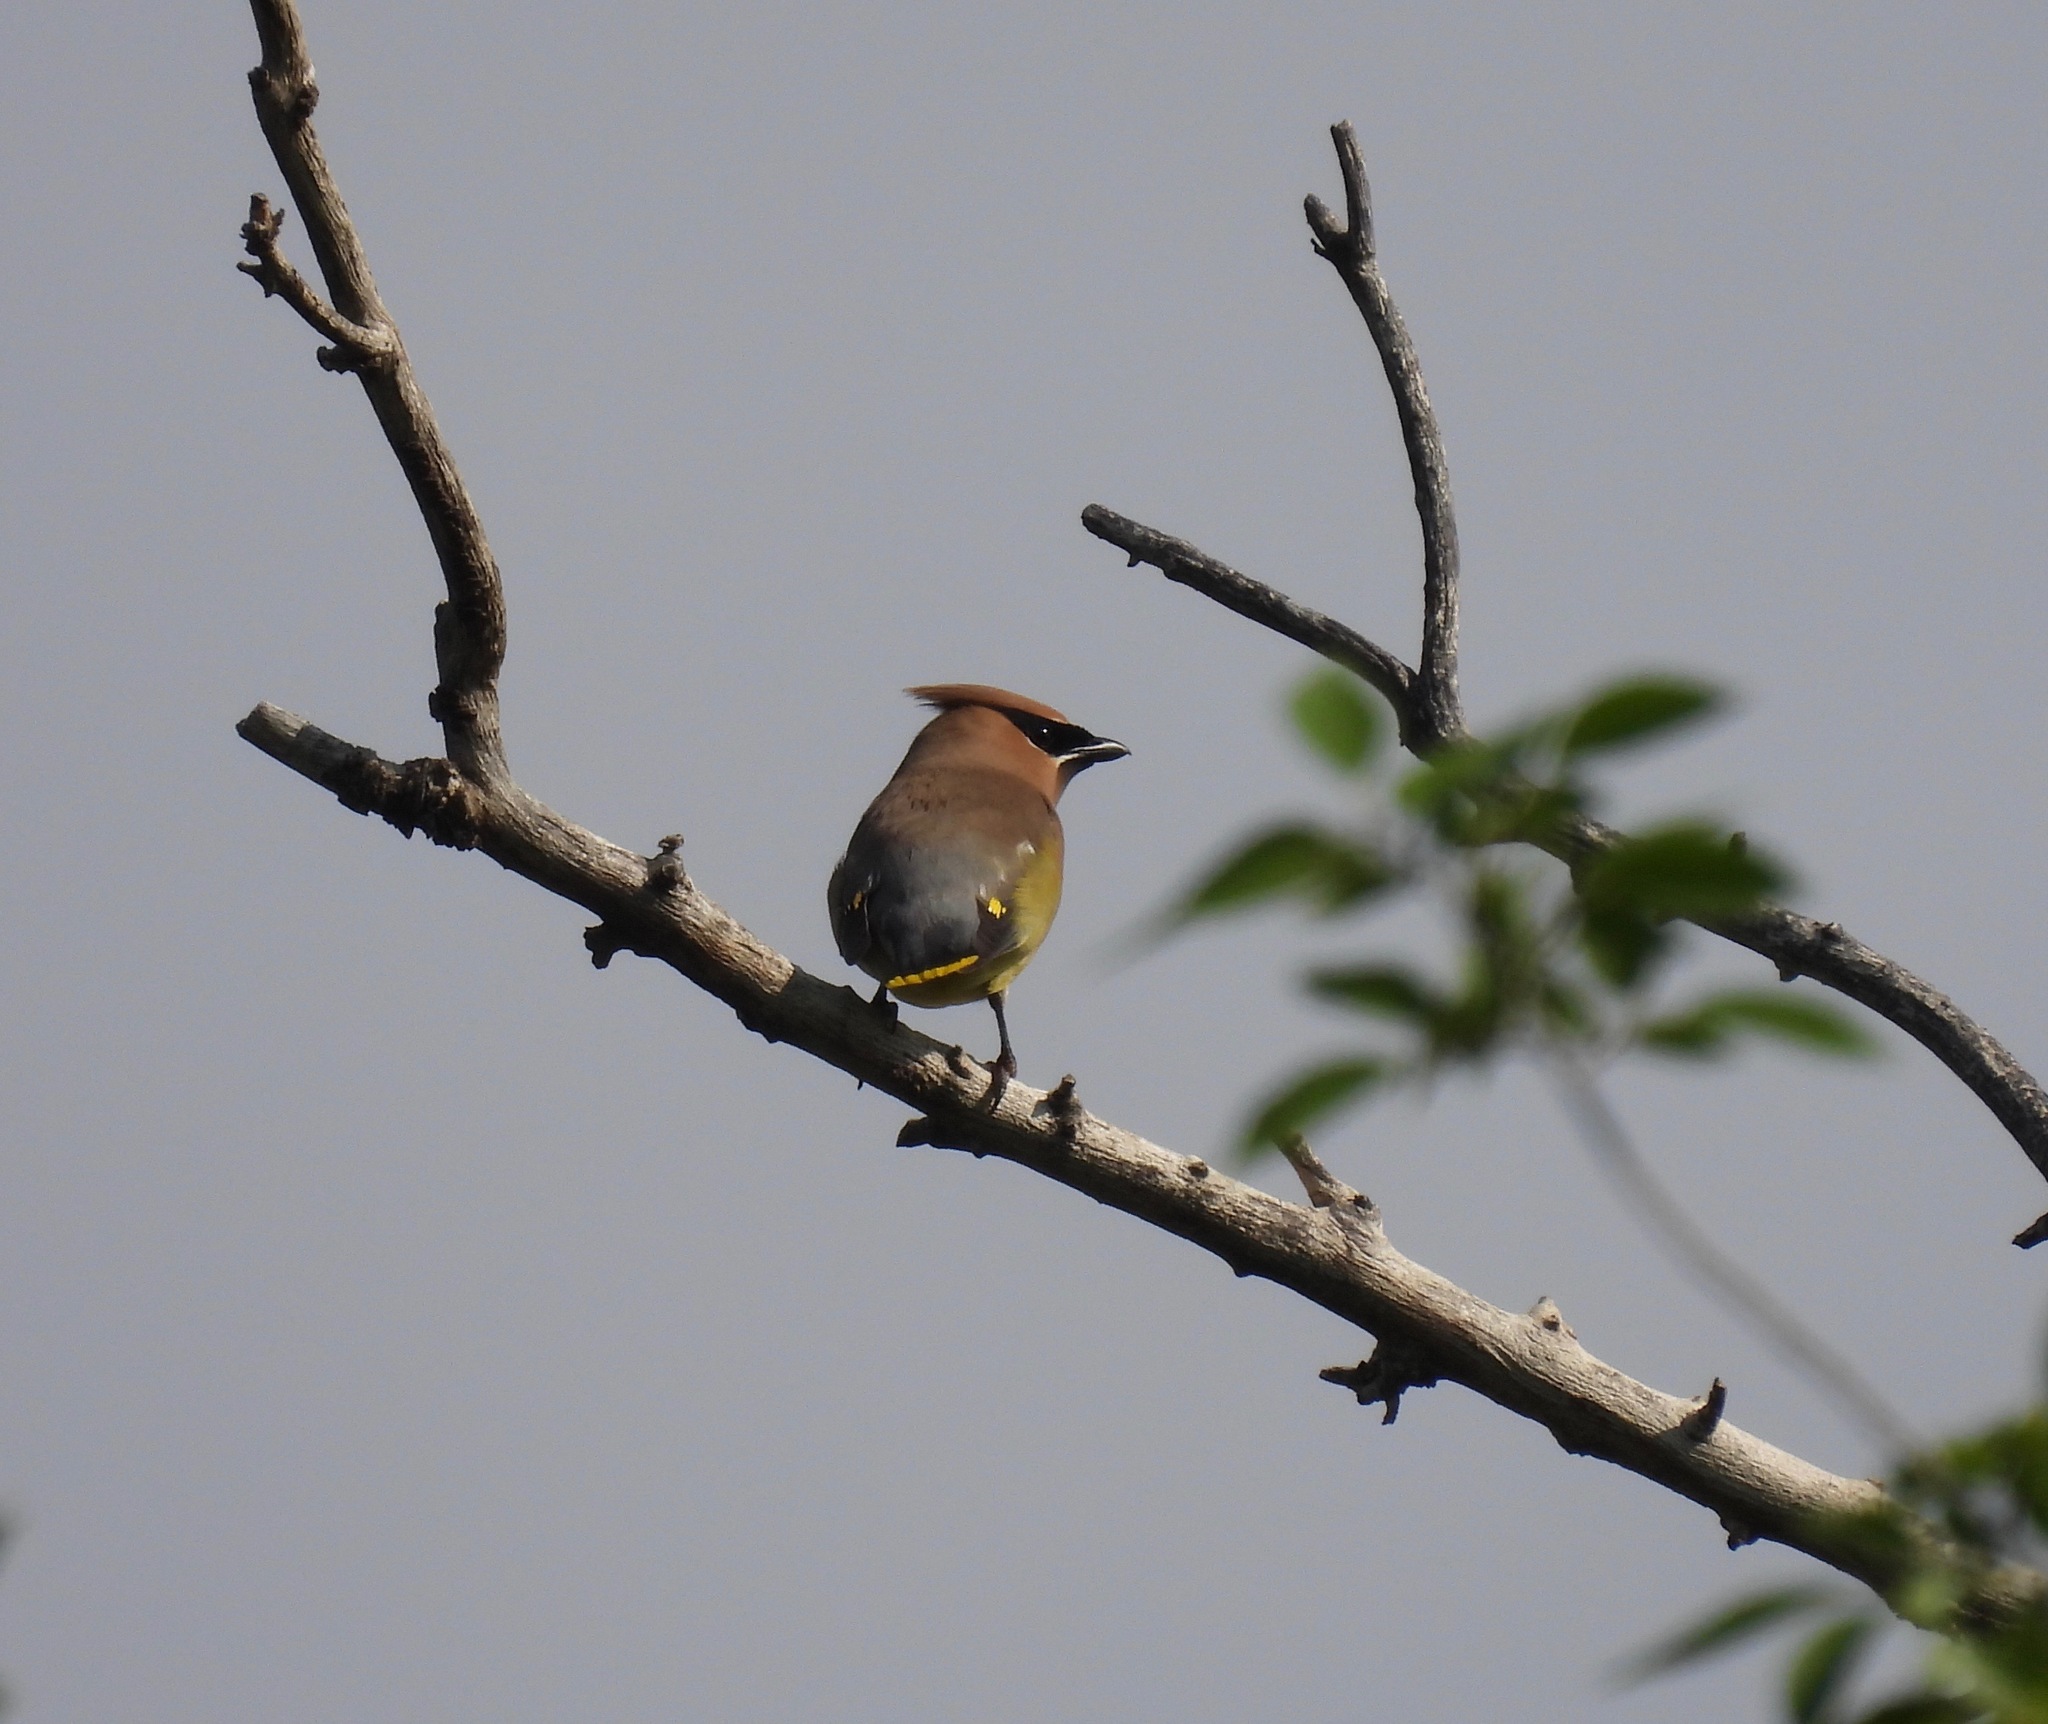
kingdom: Animalia
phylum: Chordata
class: Aves
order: Passeriformes
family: Bombycillidae
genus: Bombycilla
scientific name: Bombycilla cedrorum
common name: Cedar waxwing
